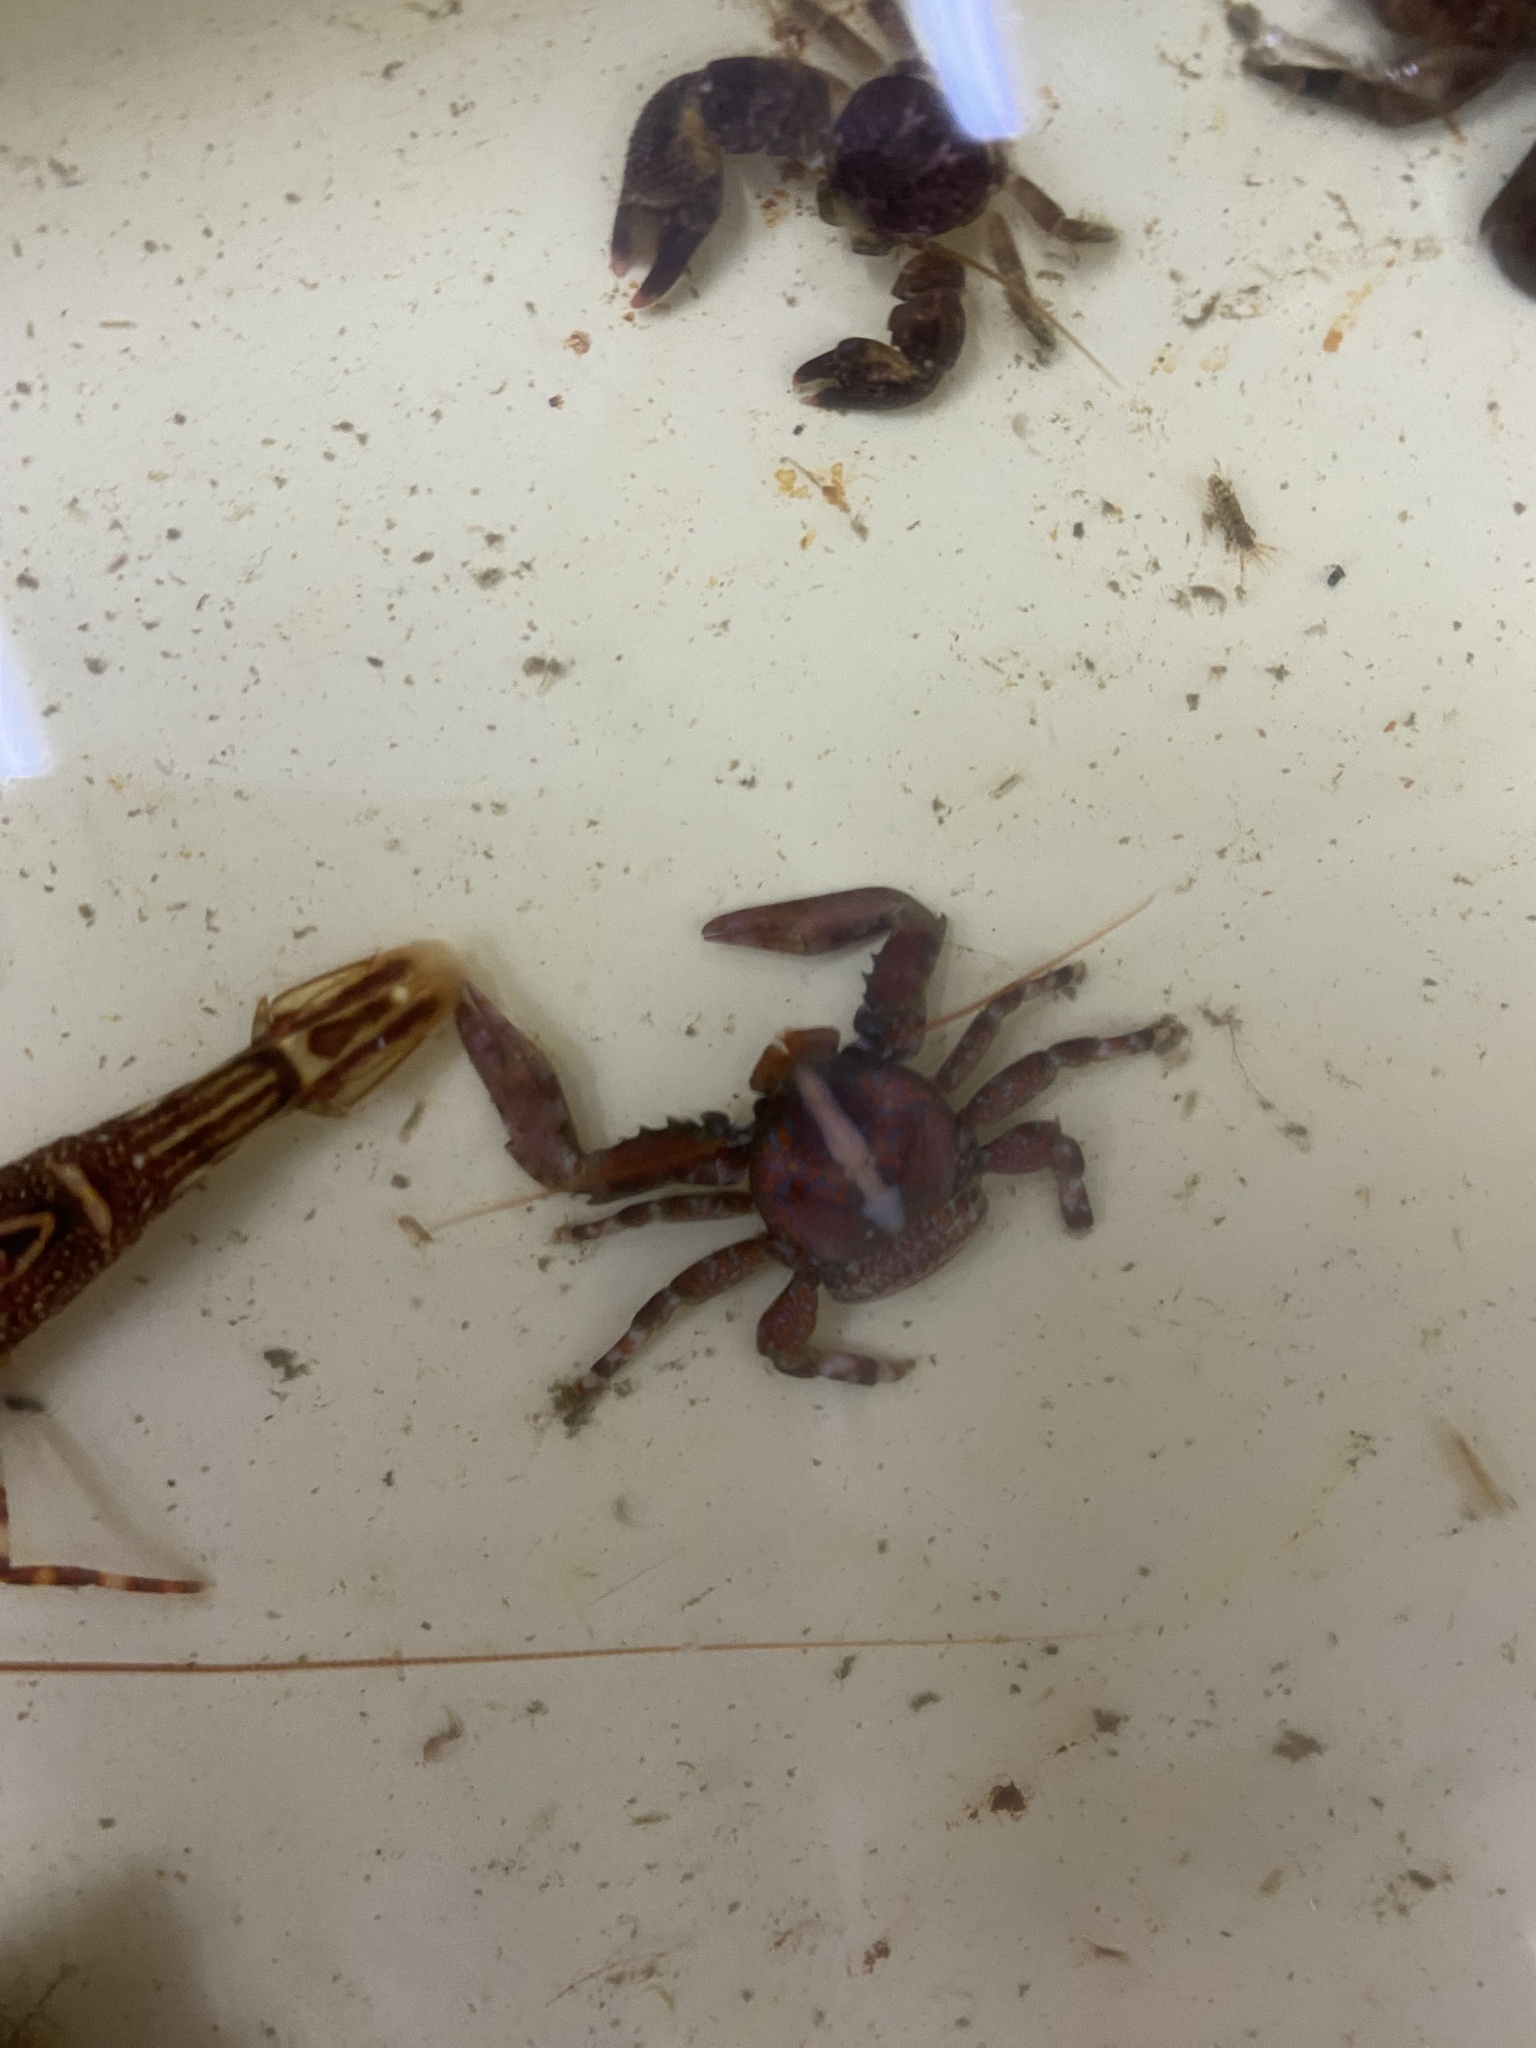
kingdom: Animalia
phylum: Arthropoda
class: Malacostraca
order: Decapoda
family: Porcellanidae
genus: Petrolisthes
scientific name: Petrolisthes mitra
